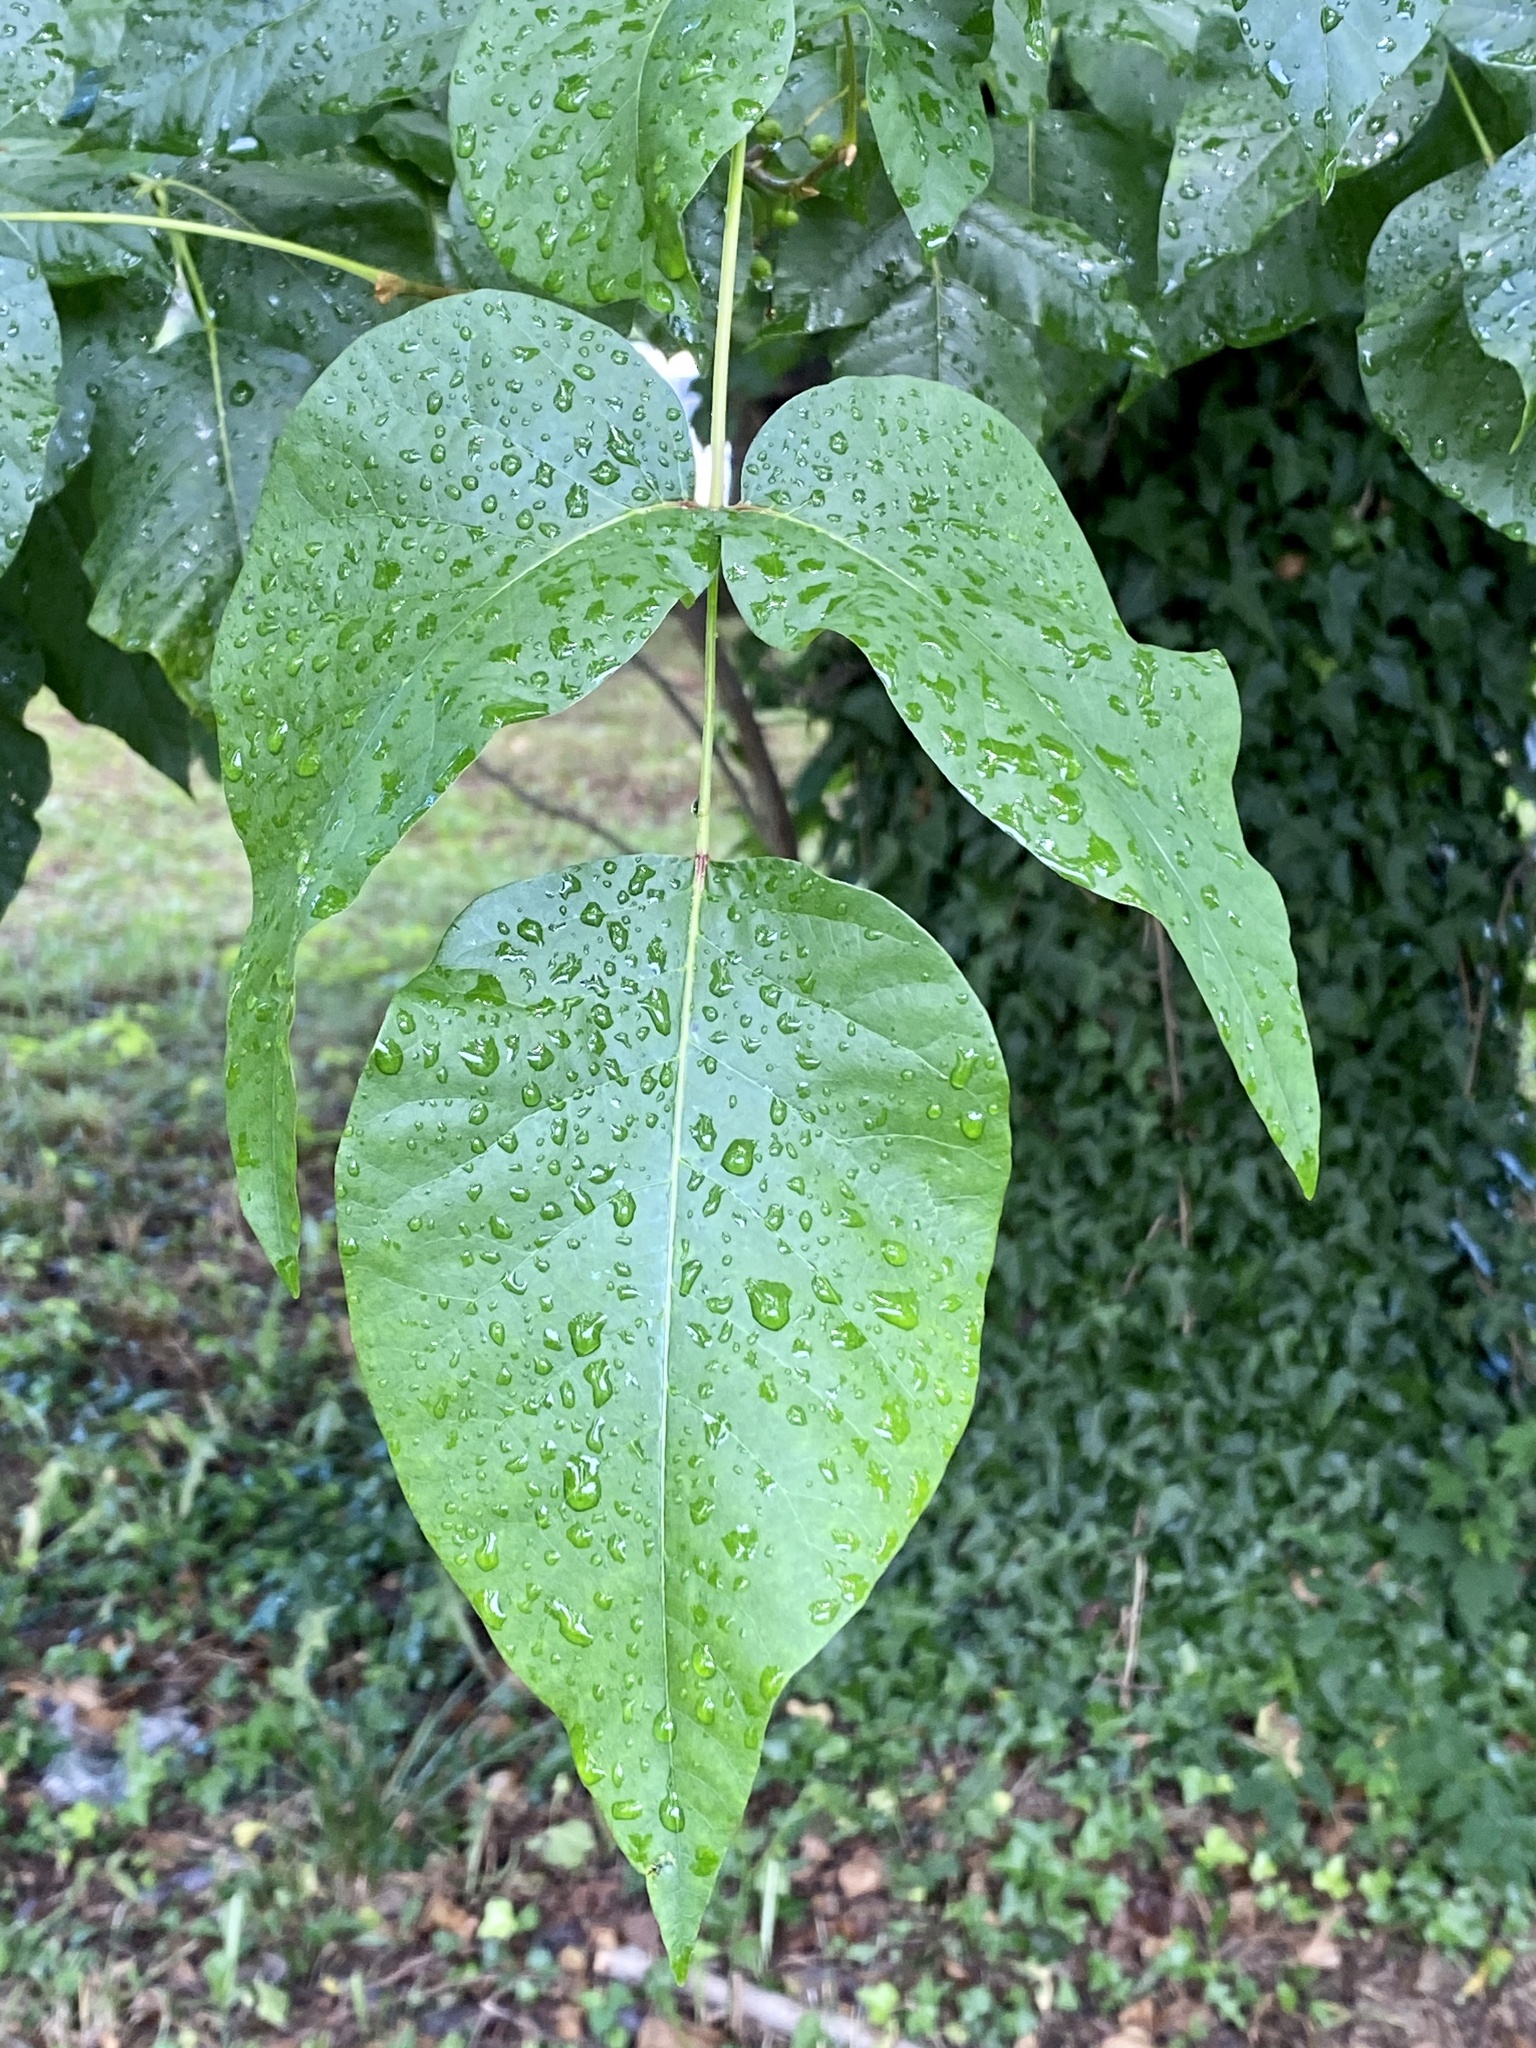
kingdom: Plantae
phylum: Tracheophyta
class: Magnoliopsida
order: Sapindales
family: Anacardiaceae
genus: Toxicodendron
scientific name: Toxicodendron radicans
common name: Poison ivy
